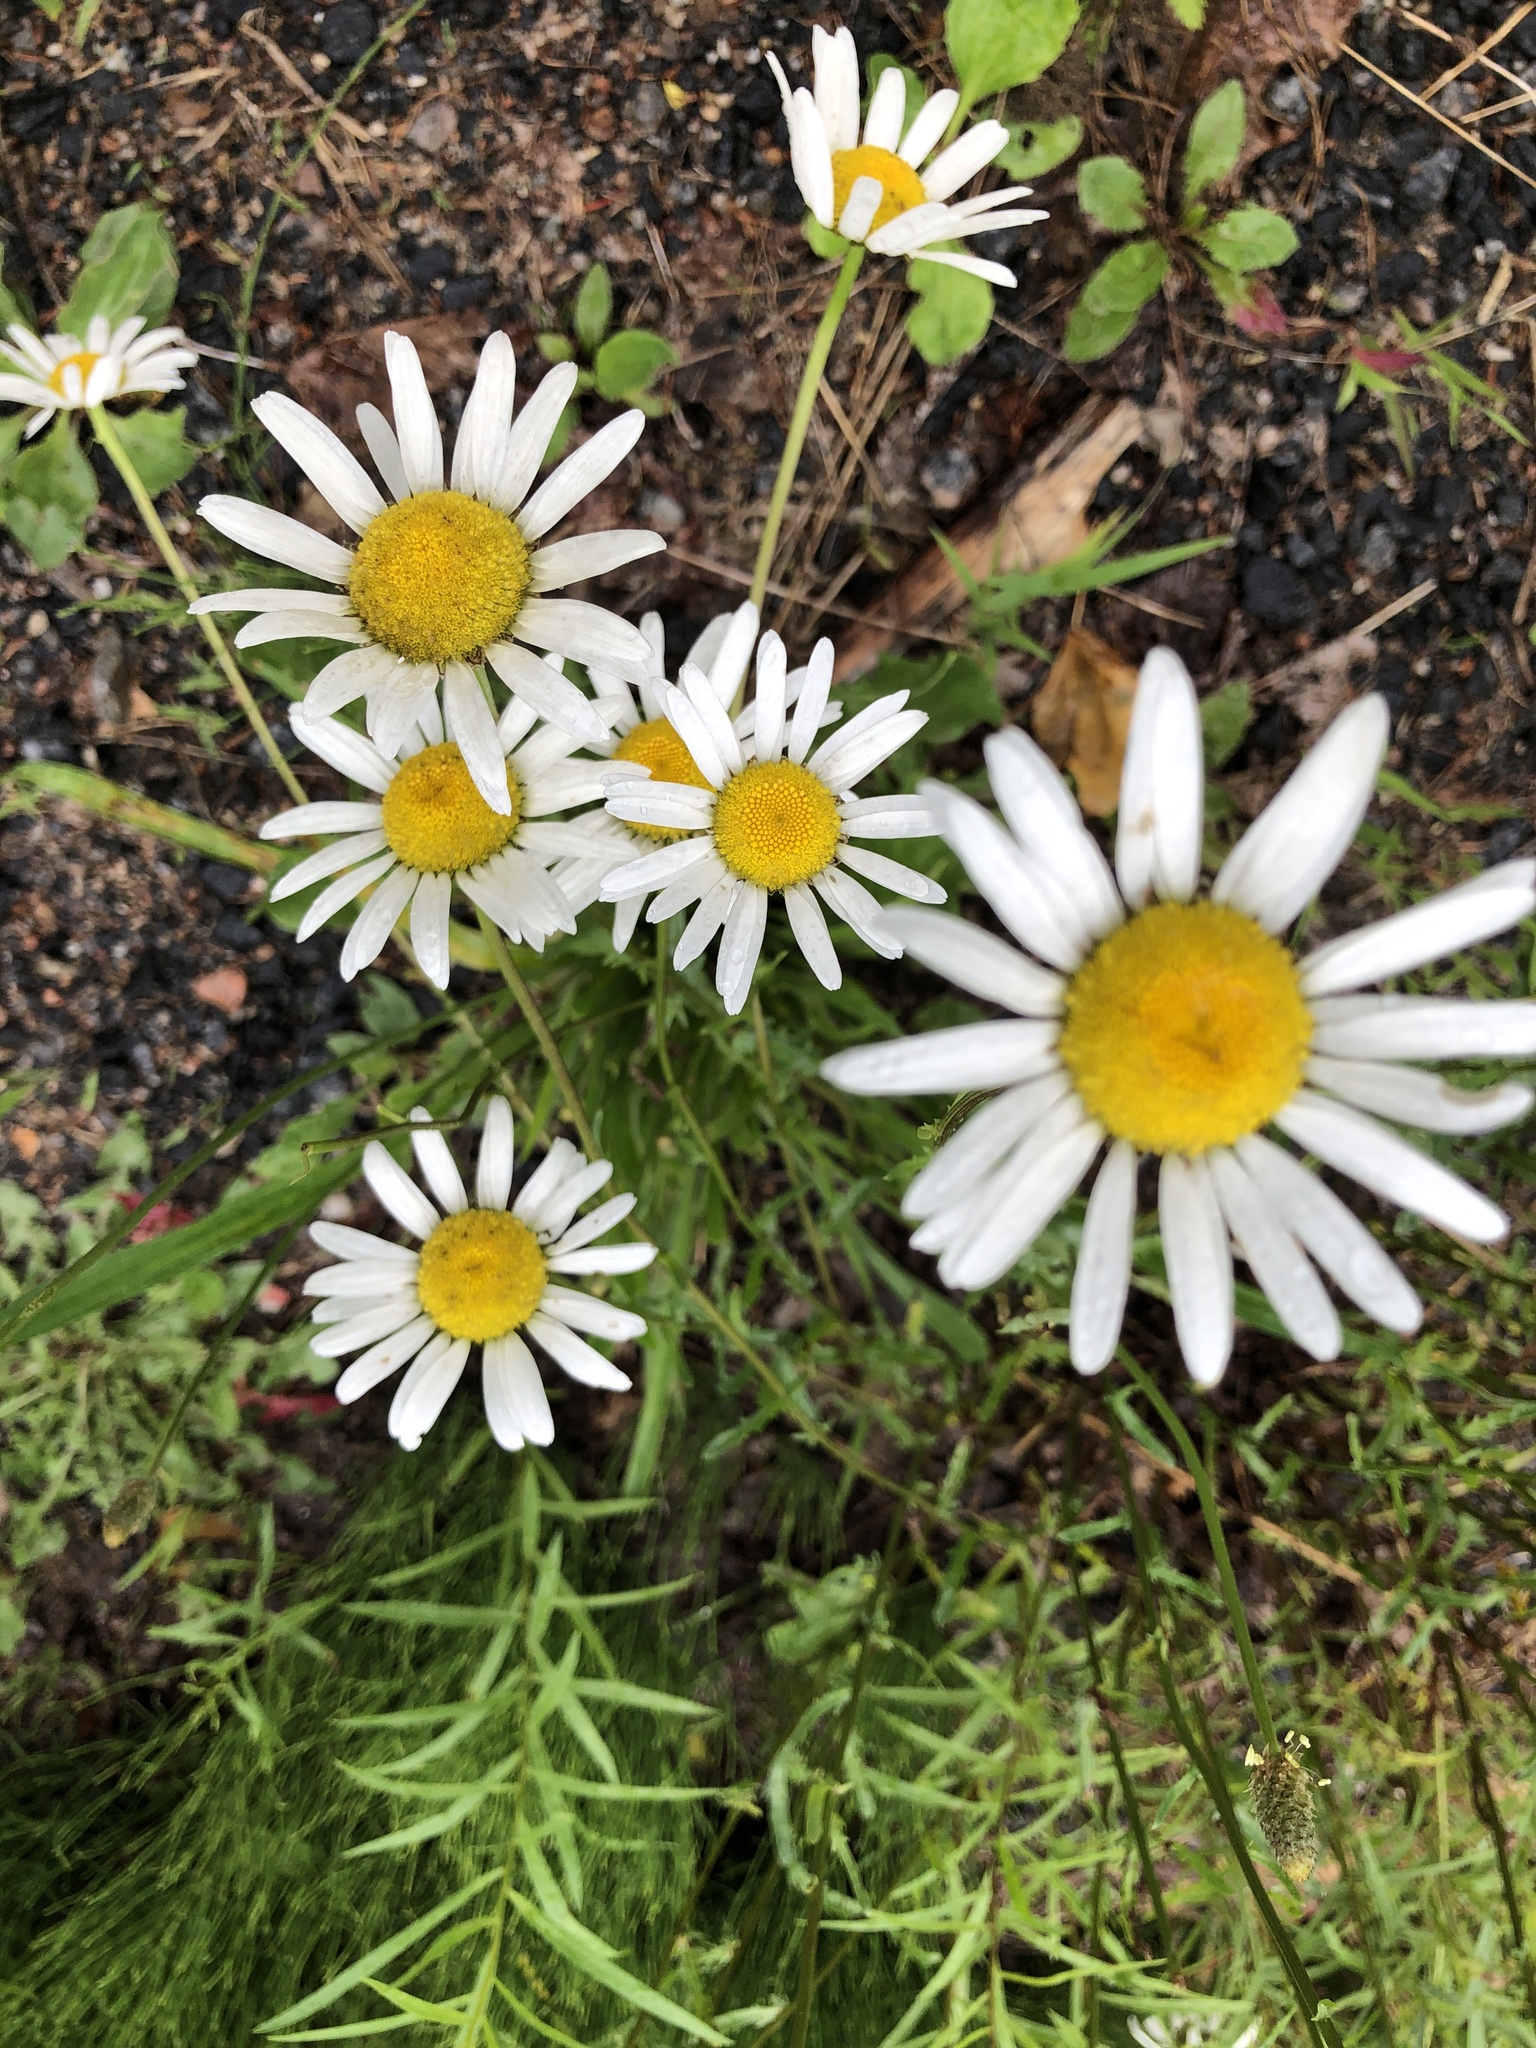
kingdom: Plantae
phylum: Tracheophyta
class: Magnoliopsida
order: Asterales
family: Asteraceae
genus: Leucanthemum
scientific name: Leucanthemum vulgare
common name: Oxeye daisy
